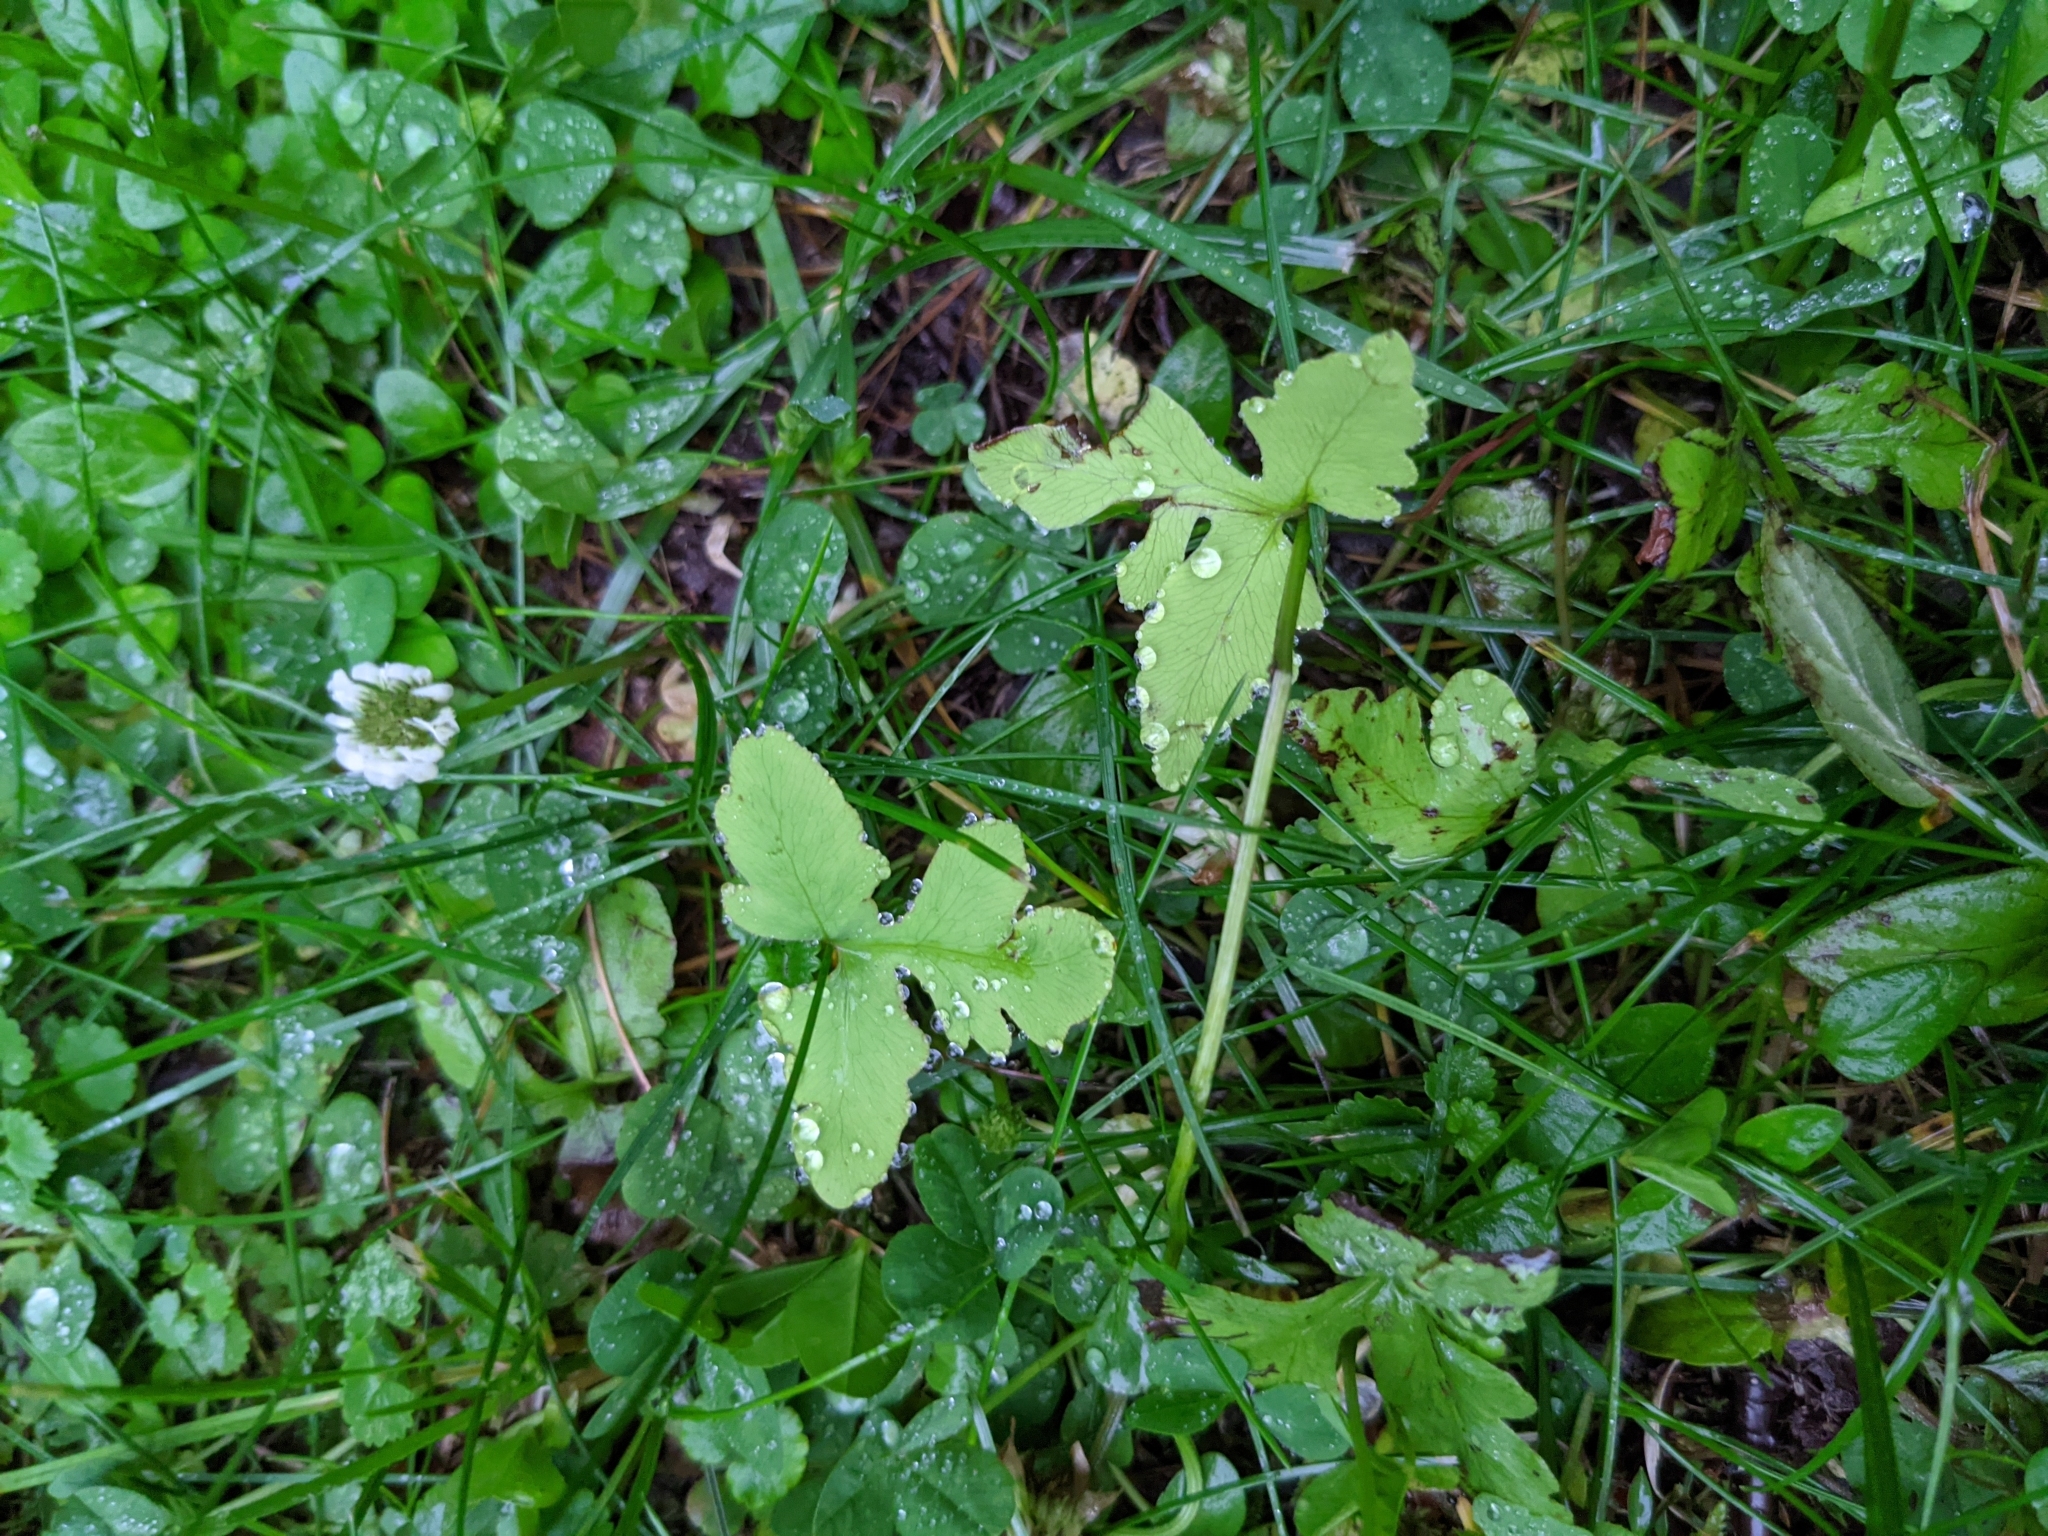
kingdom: Plantae
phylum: Tracheophyta
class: Polypodiopsida
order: Polypodiales
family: Onocleaceae
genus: Onoclea
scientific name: Onoclea sensibilis
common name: Sensitive fern
